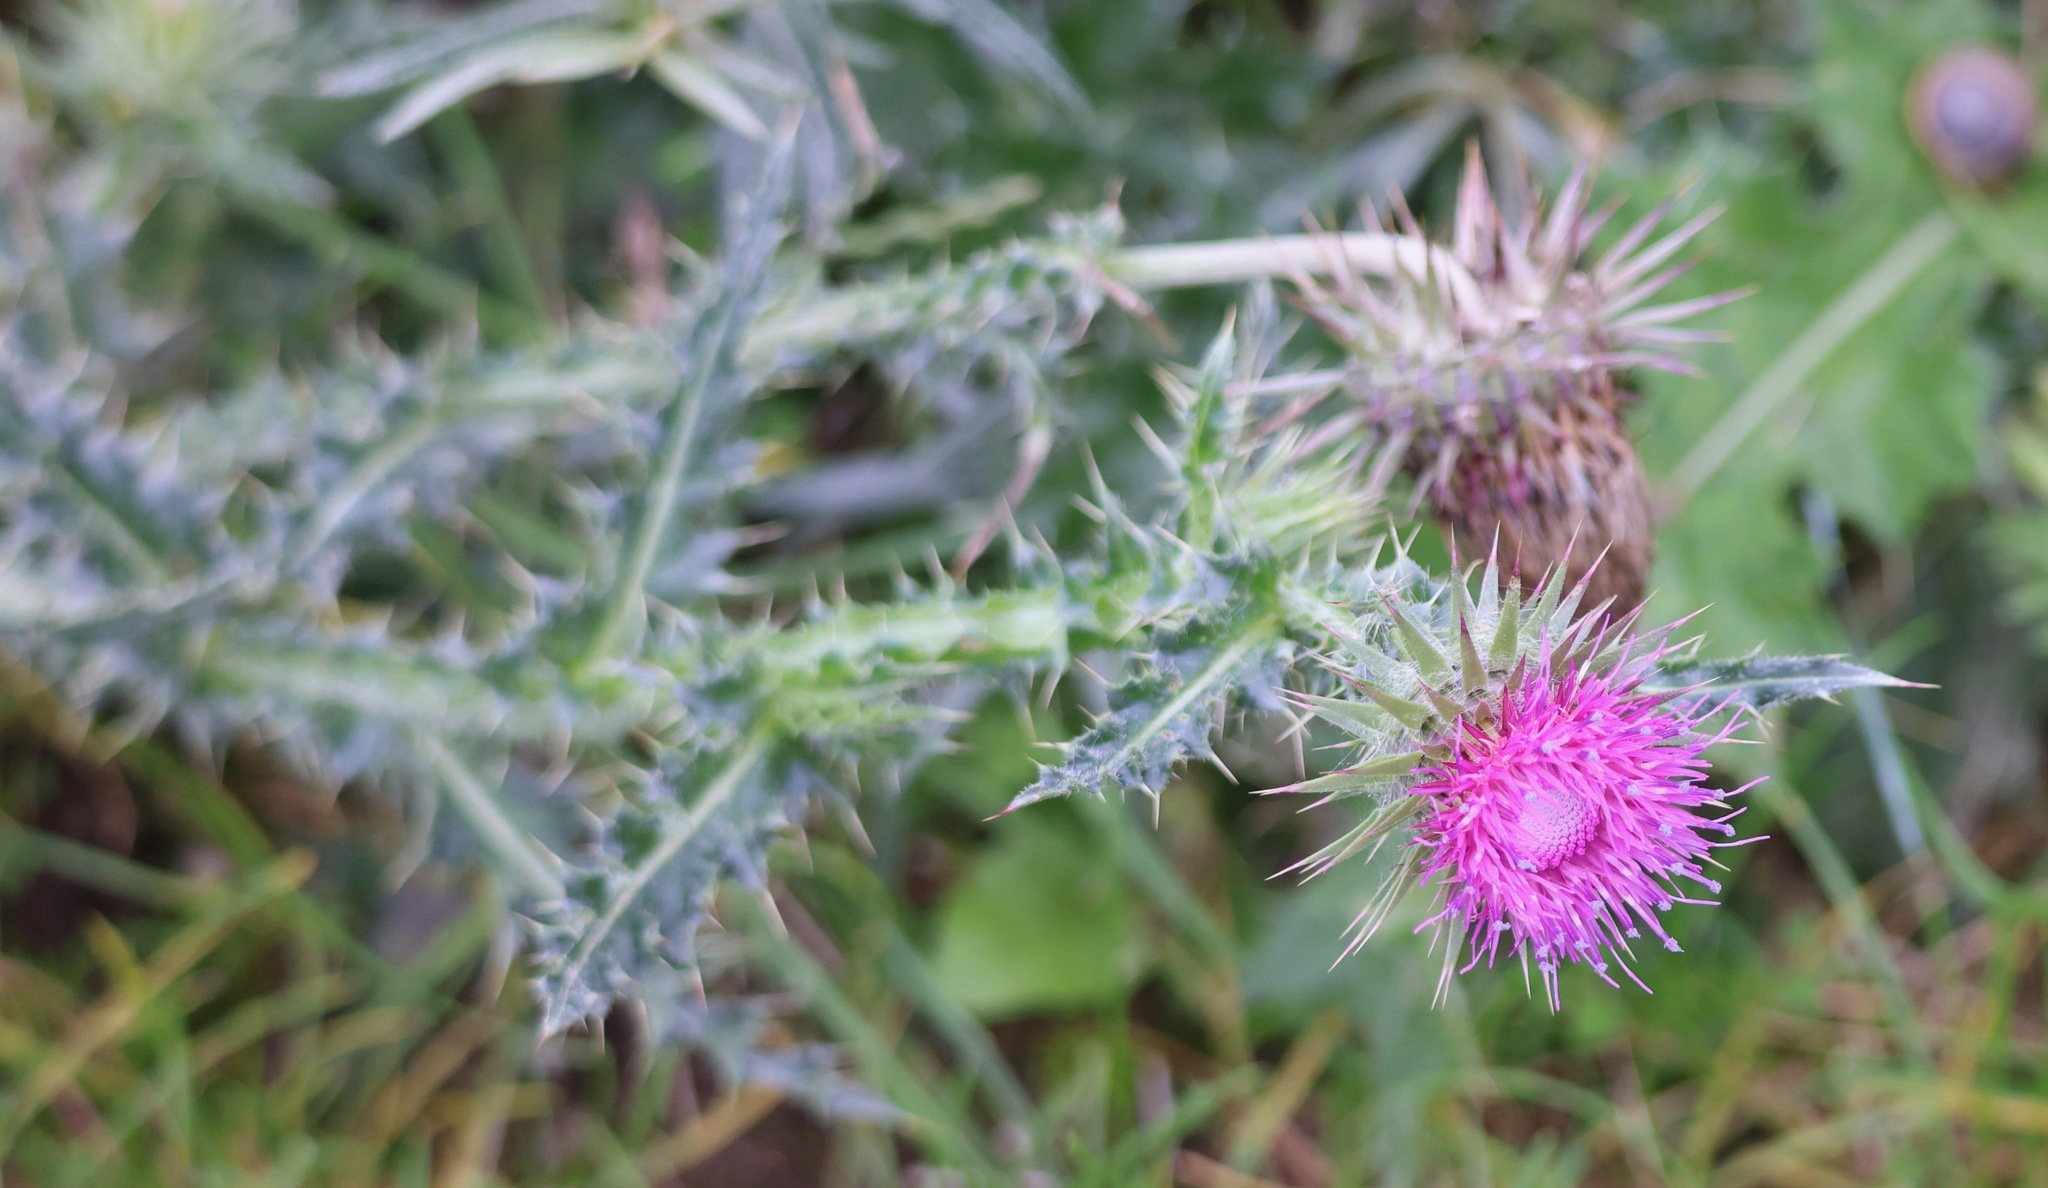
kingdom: Plantae
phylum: Tracheophyta
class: Magnoliopsida
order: Asterales
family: Asteraceae
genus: Carduus
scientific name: Carduus nutans
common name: Musk thistle
